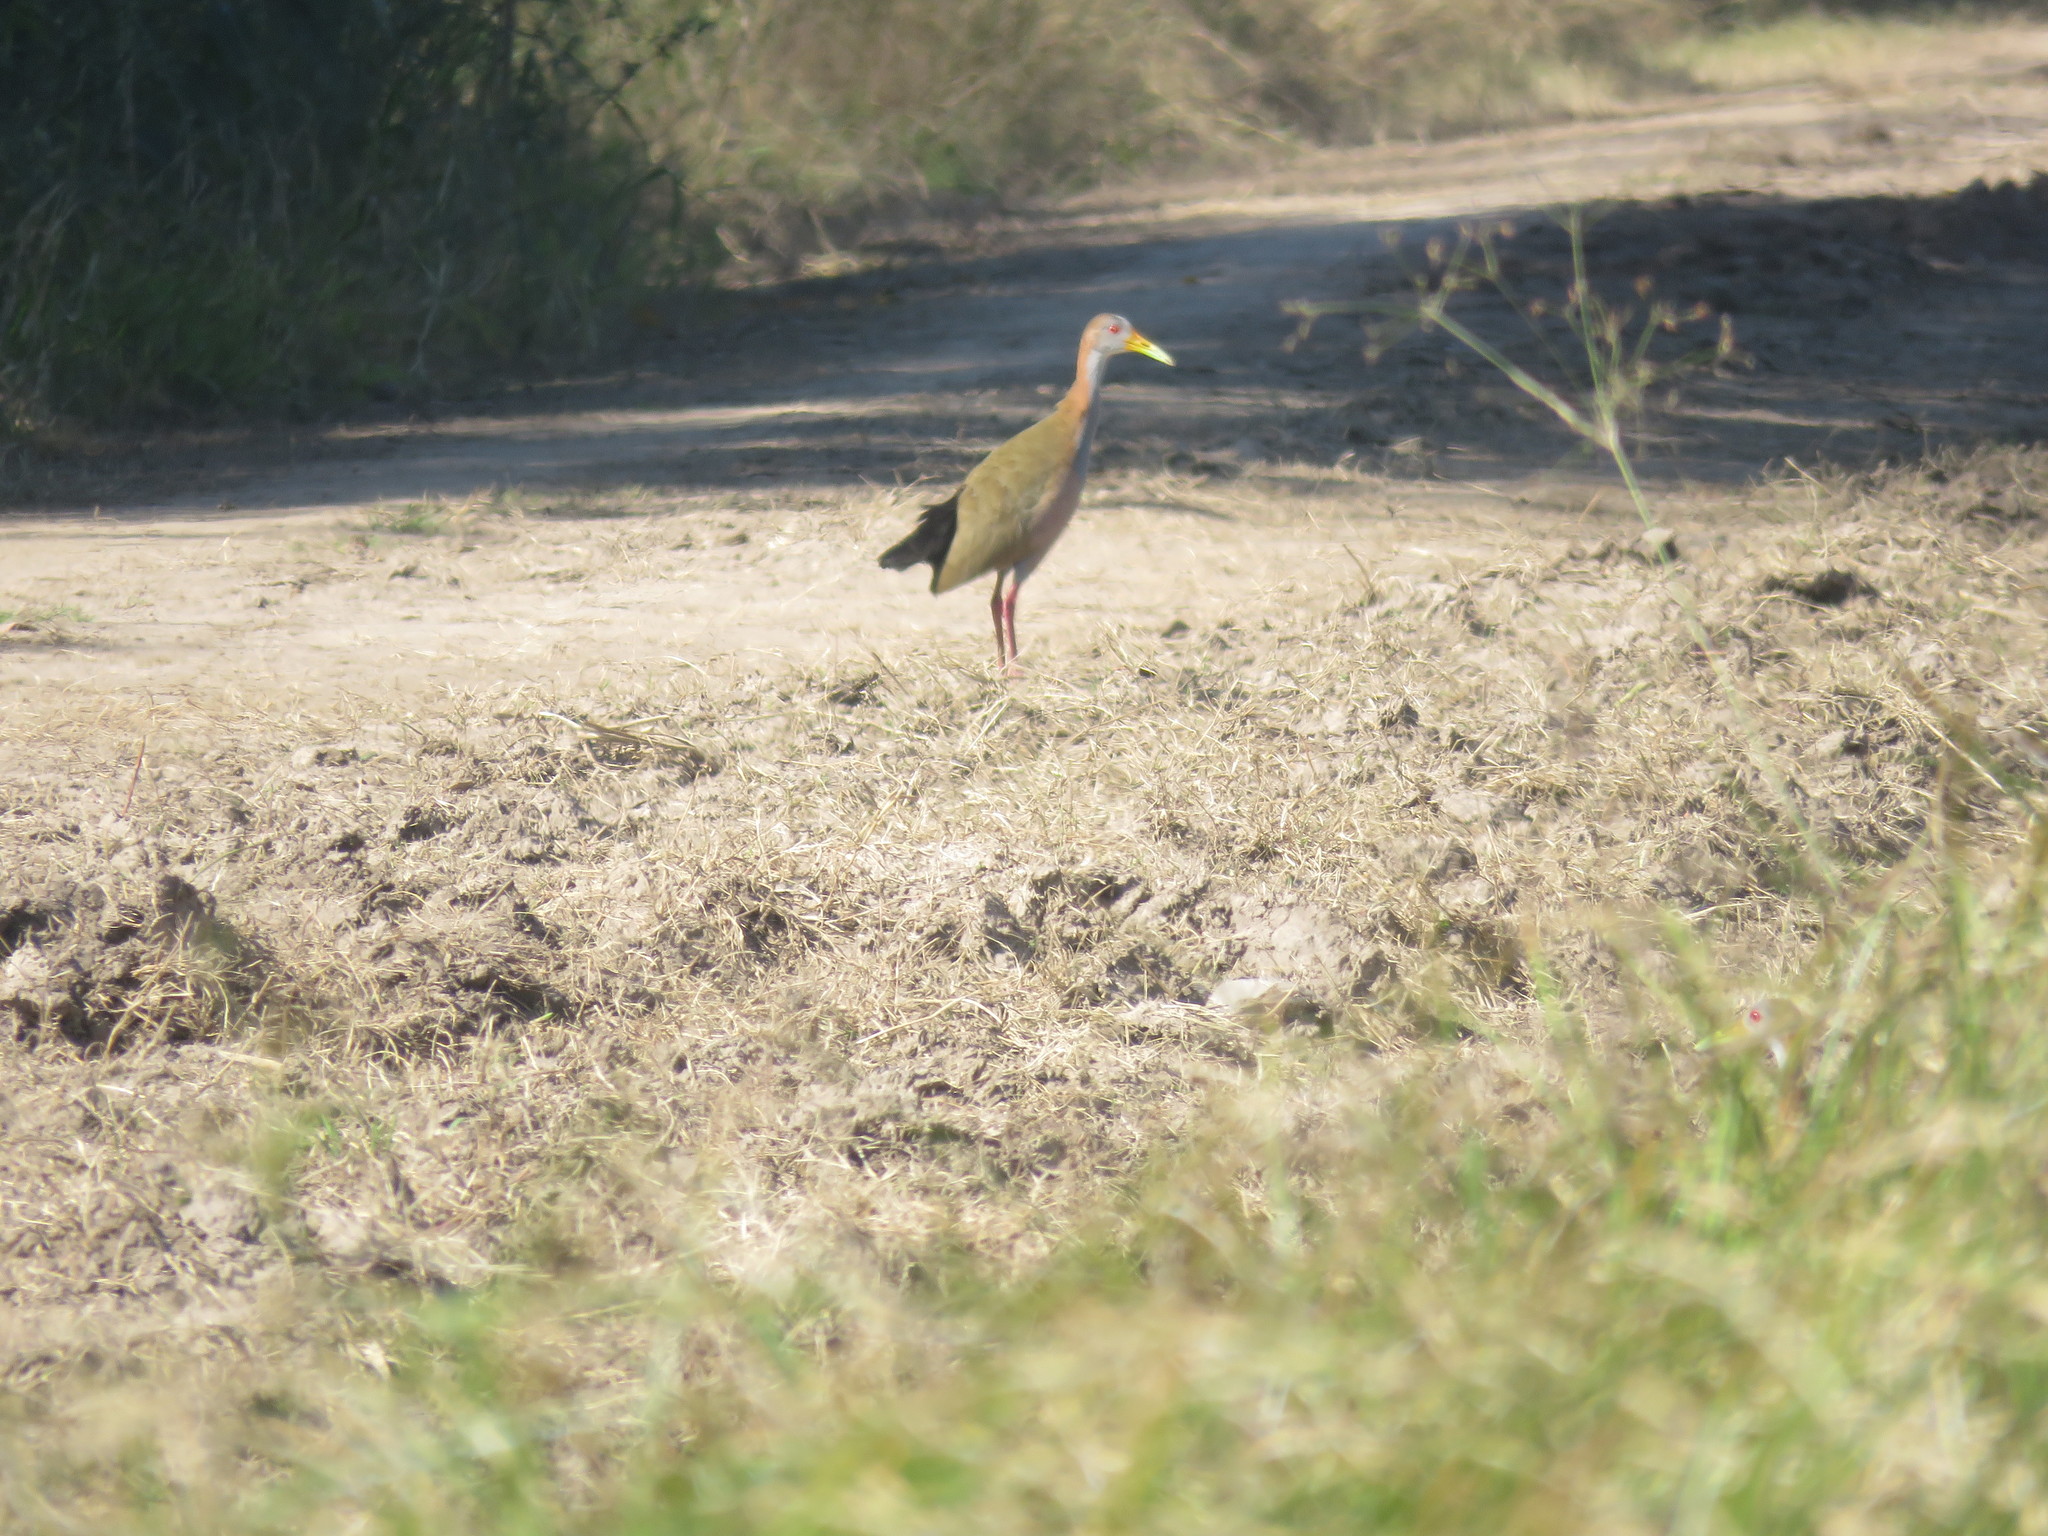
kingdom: Animalia
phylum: Chordata
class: Aves
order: Gruiformes
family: Rallidae
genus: Aramides
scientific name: Aramides ypecaha
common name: Giant wood rail
